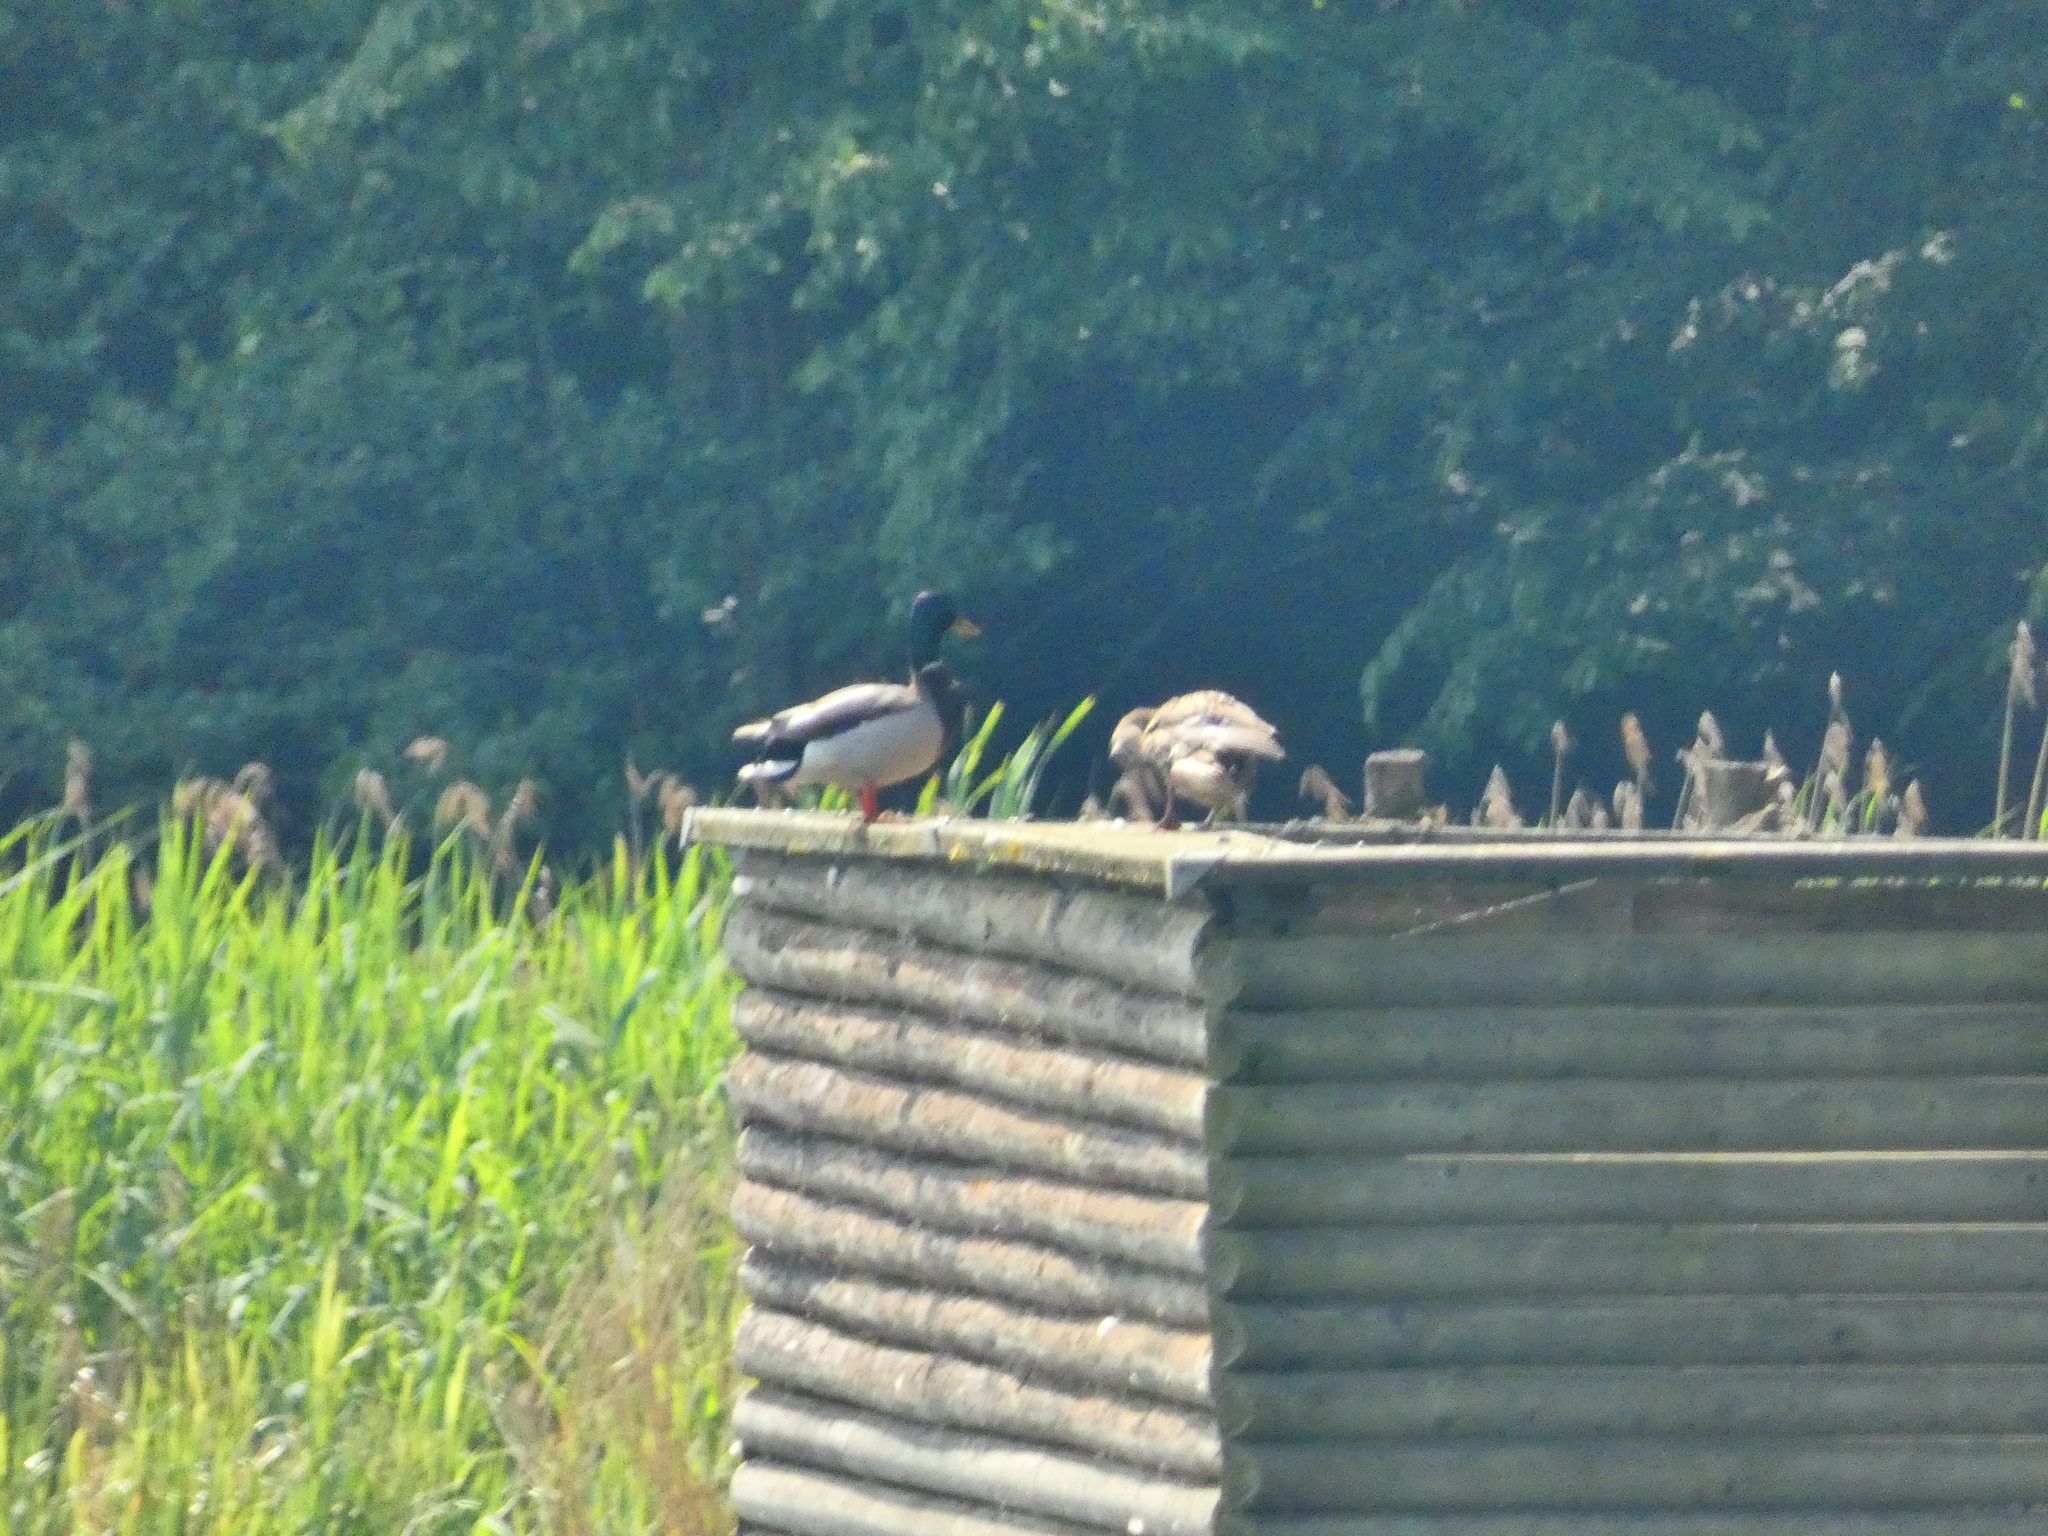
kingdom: Animalia
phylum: Chordata
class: Aves
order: Anseriformes
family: Anatidae
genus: Anas
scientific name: Anas platyrhynchos
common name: Mallard
